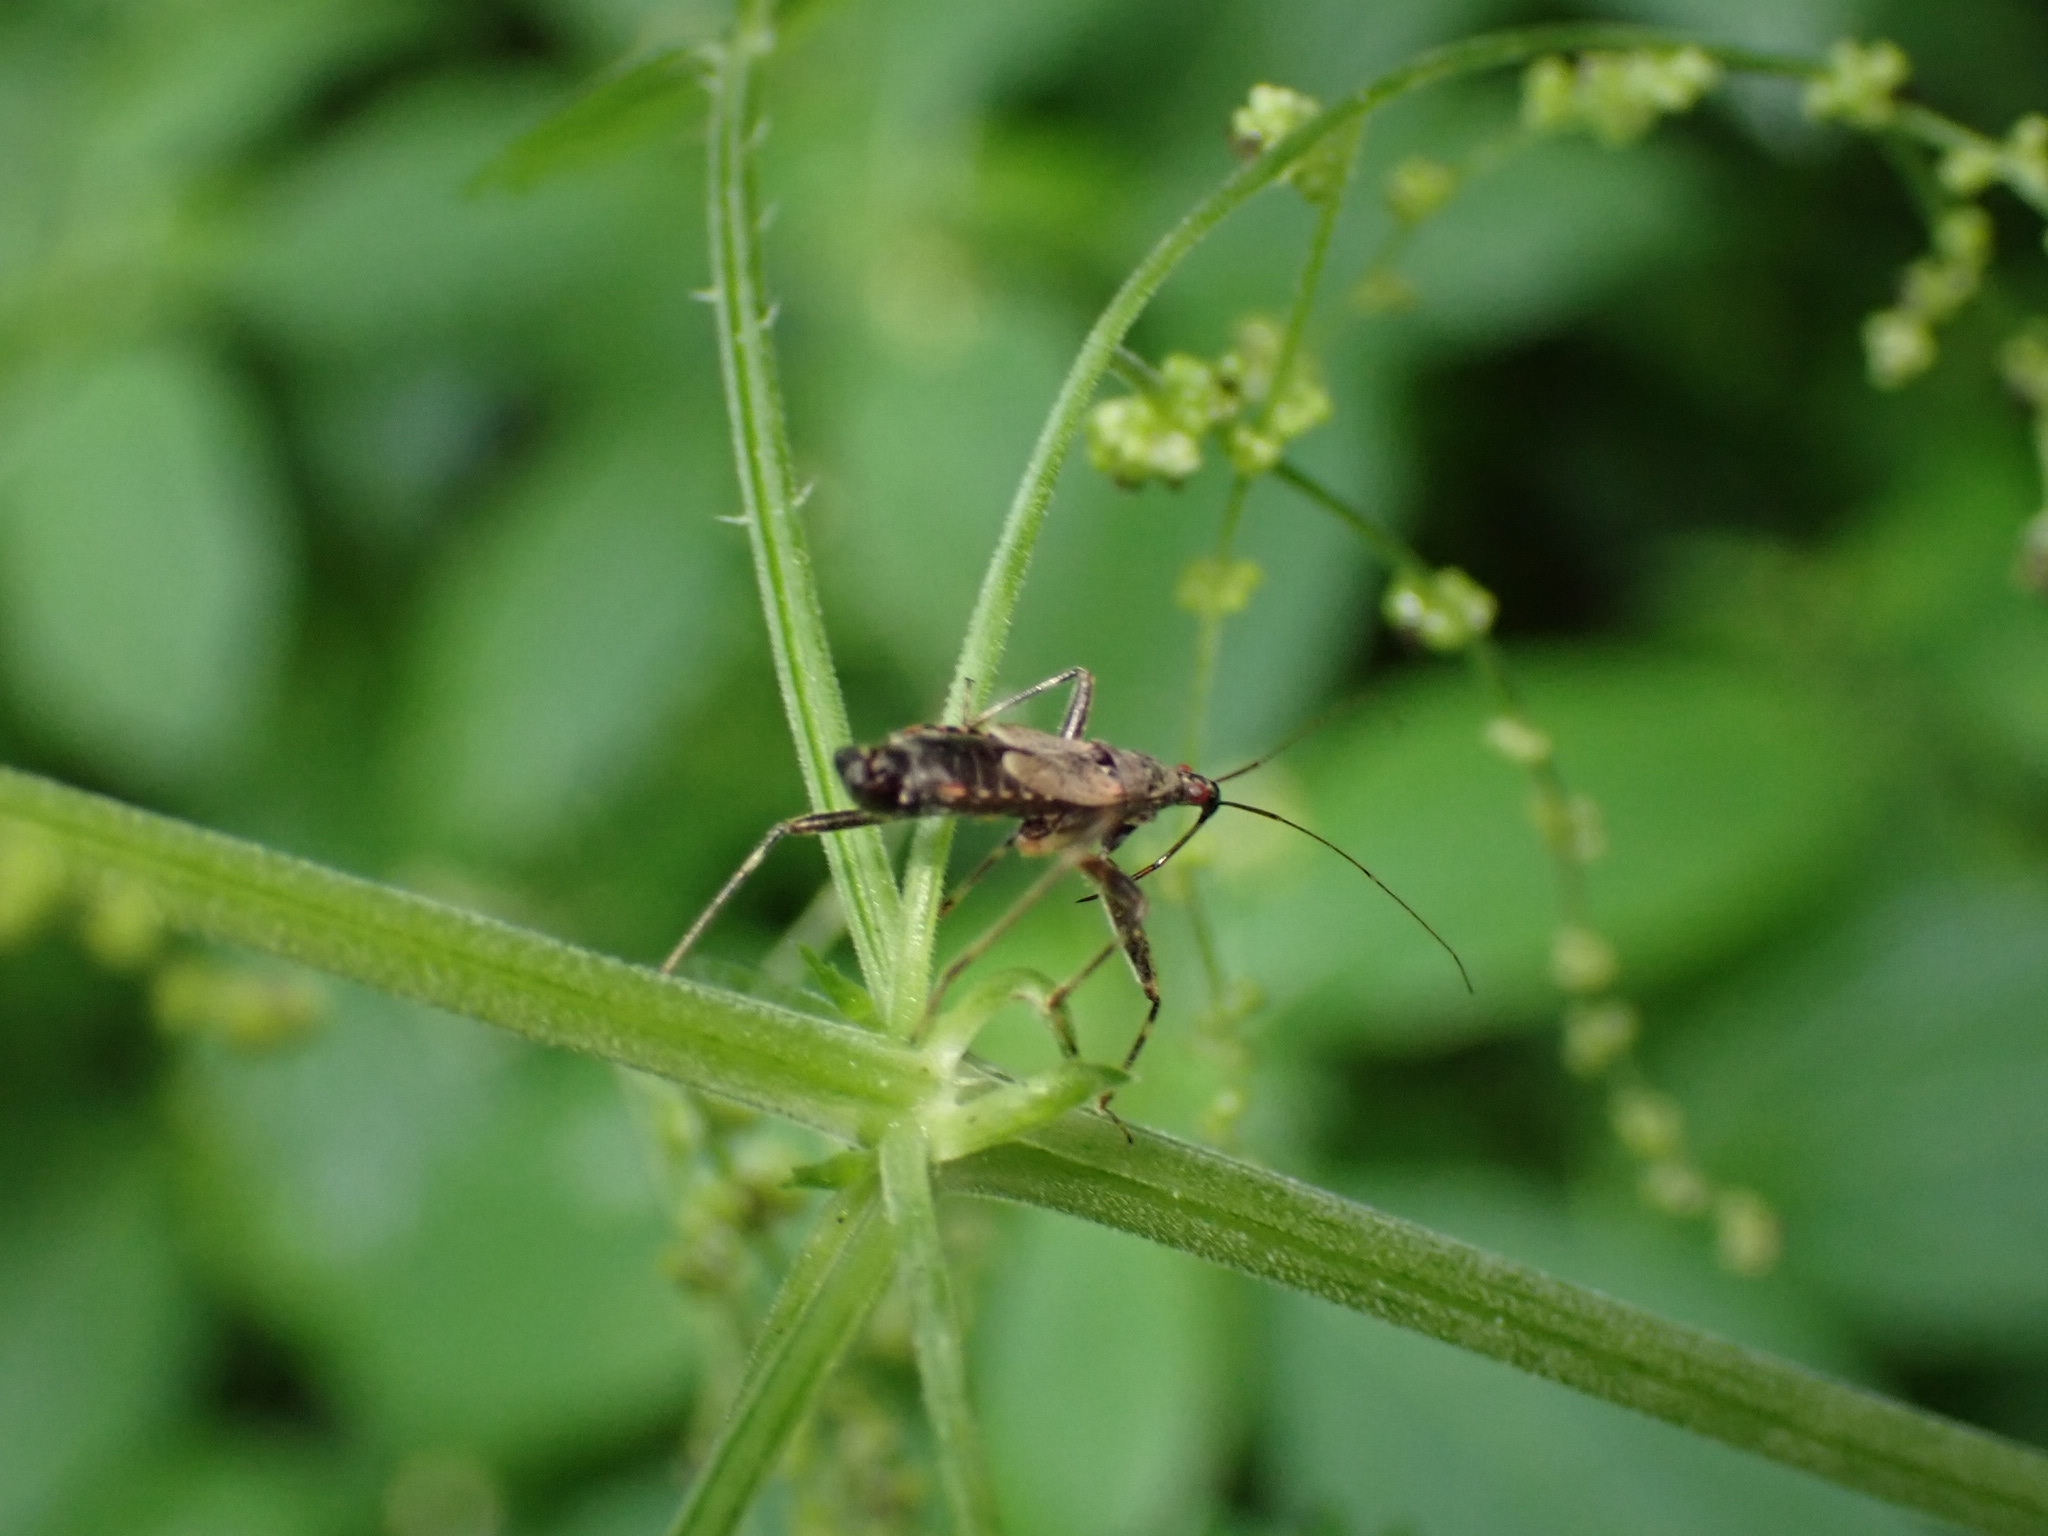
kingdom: Animalia
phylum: Arthropoda
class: Insecta
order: Hemiptera
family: Nabidae
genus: Himacerus
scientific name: Himacerus apterus
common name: Tree damsel bug
